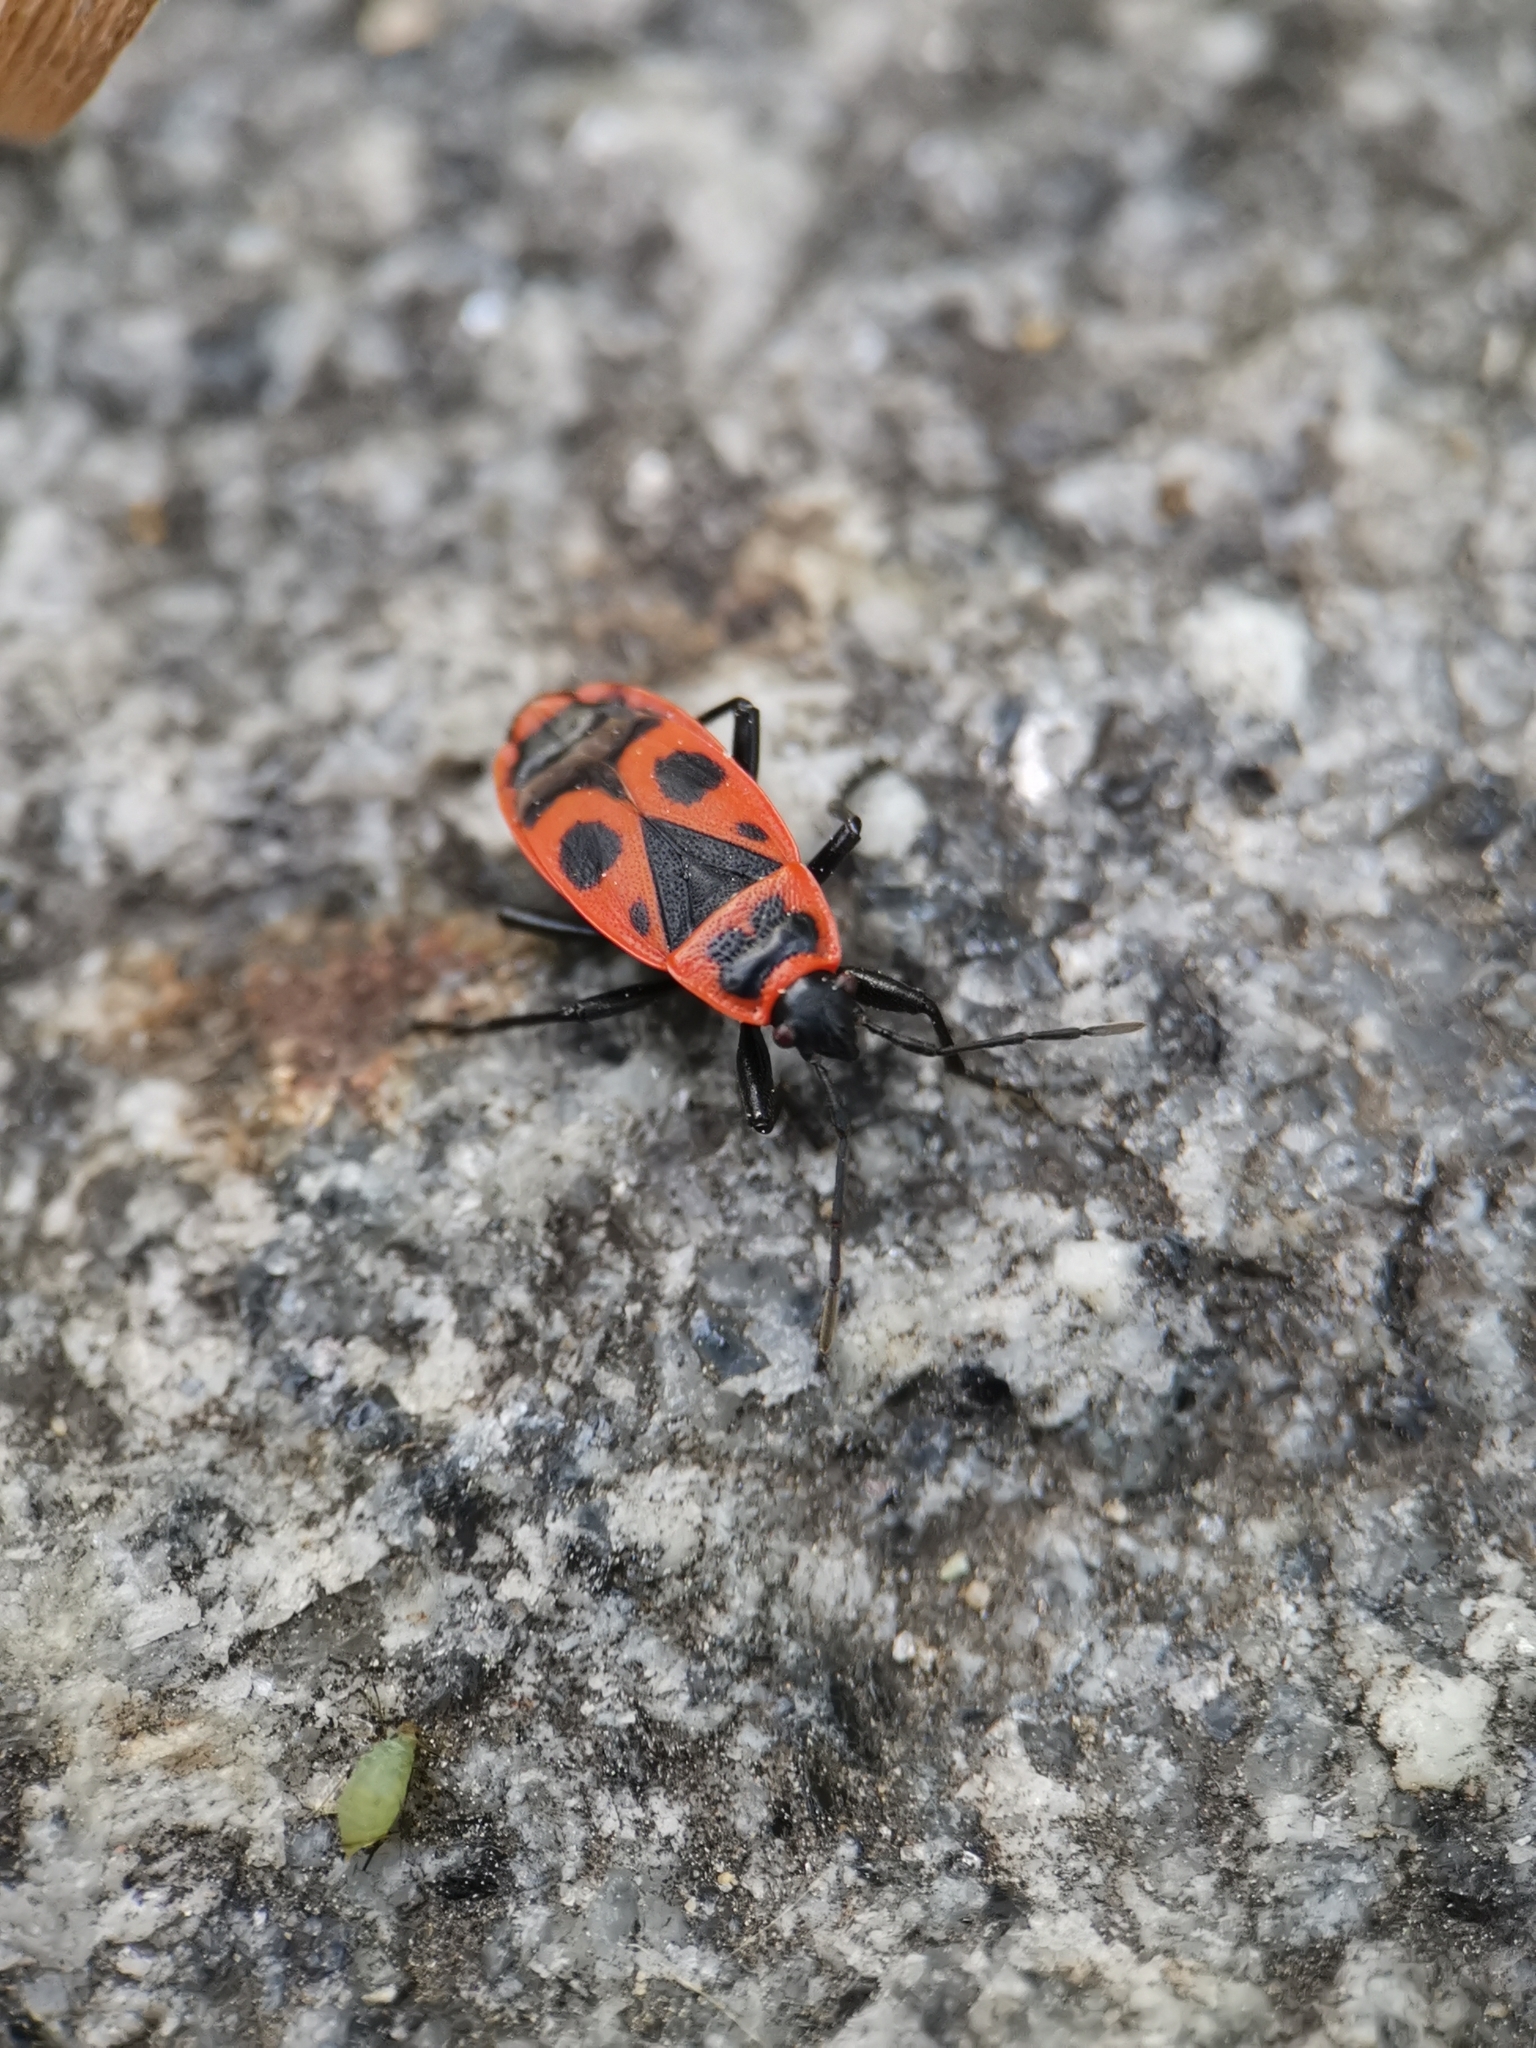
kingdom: Animalia
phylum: Arthropoda
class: Insecta
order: Hemiptera
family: Pyrrhocoridae
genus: Pyrrhocoris
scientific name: Pyrrhocoris apterus
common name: Firebug
